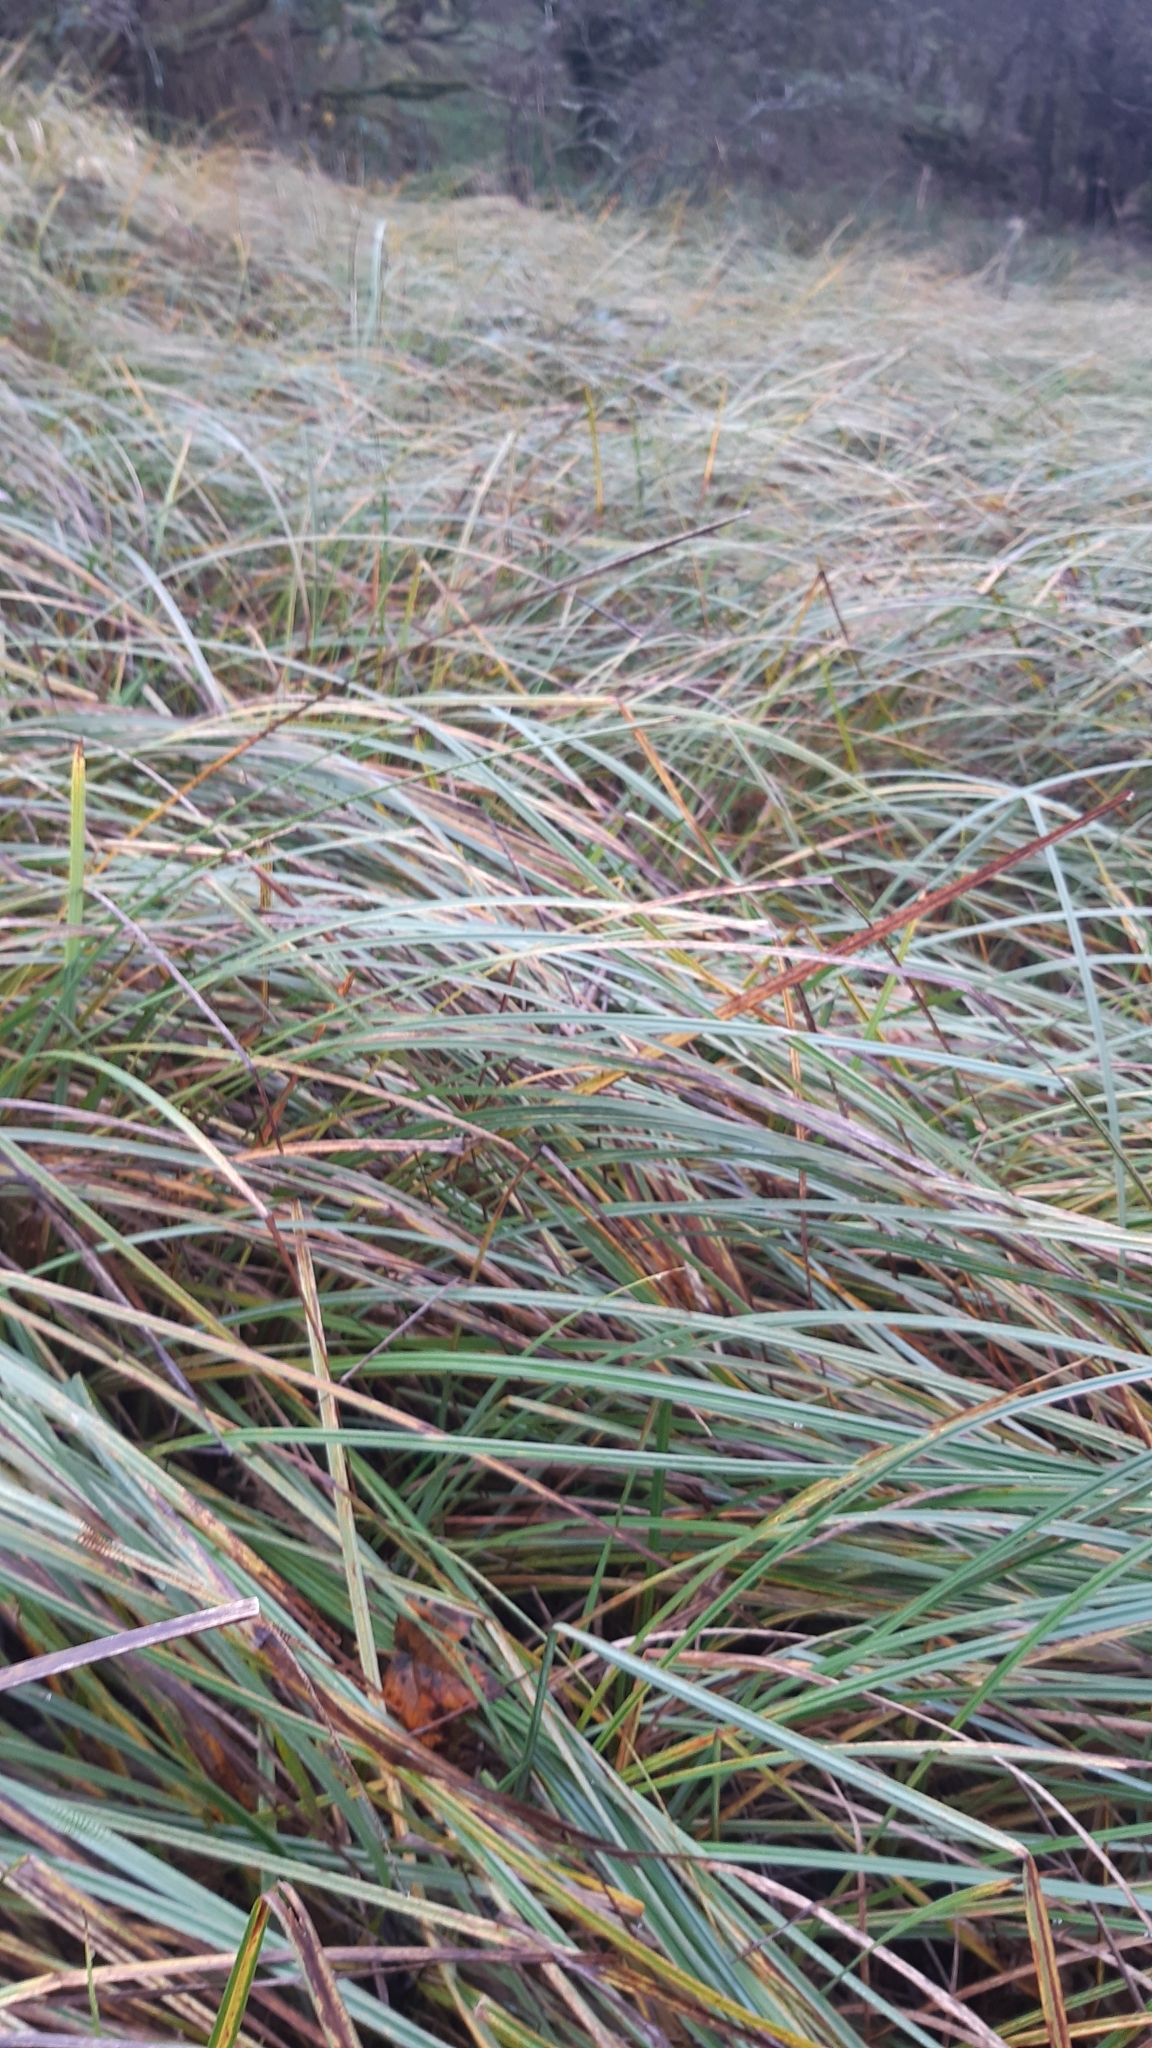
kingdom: Plantae
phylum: Tracheophyta
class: Liliopsida
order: Poales
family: Cyperaceae
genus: Carex
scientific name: Carex flacca
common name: Glaucous sedge
